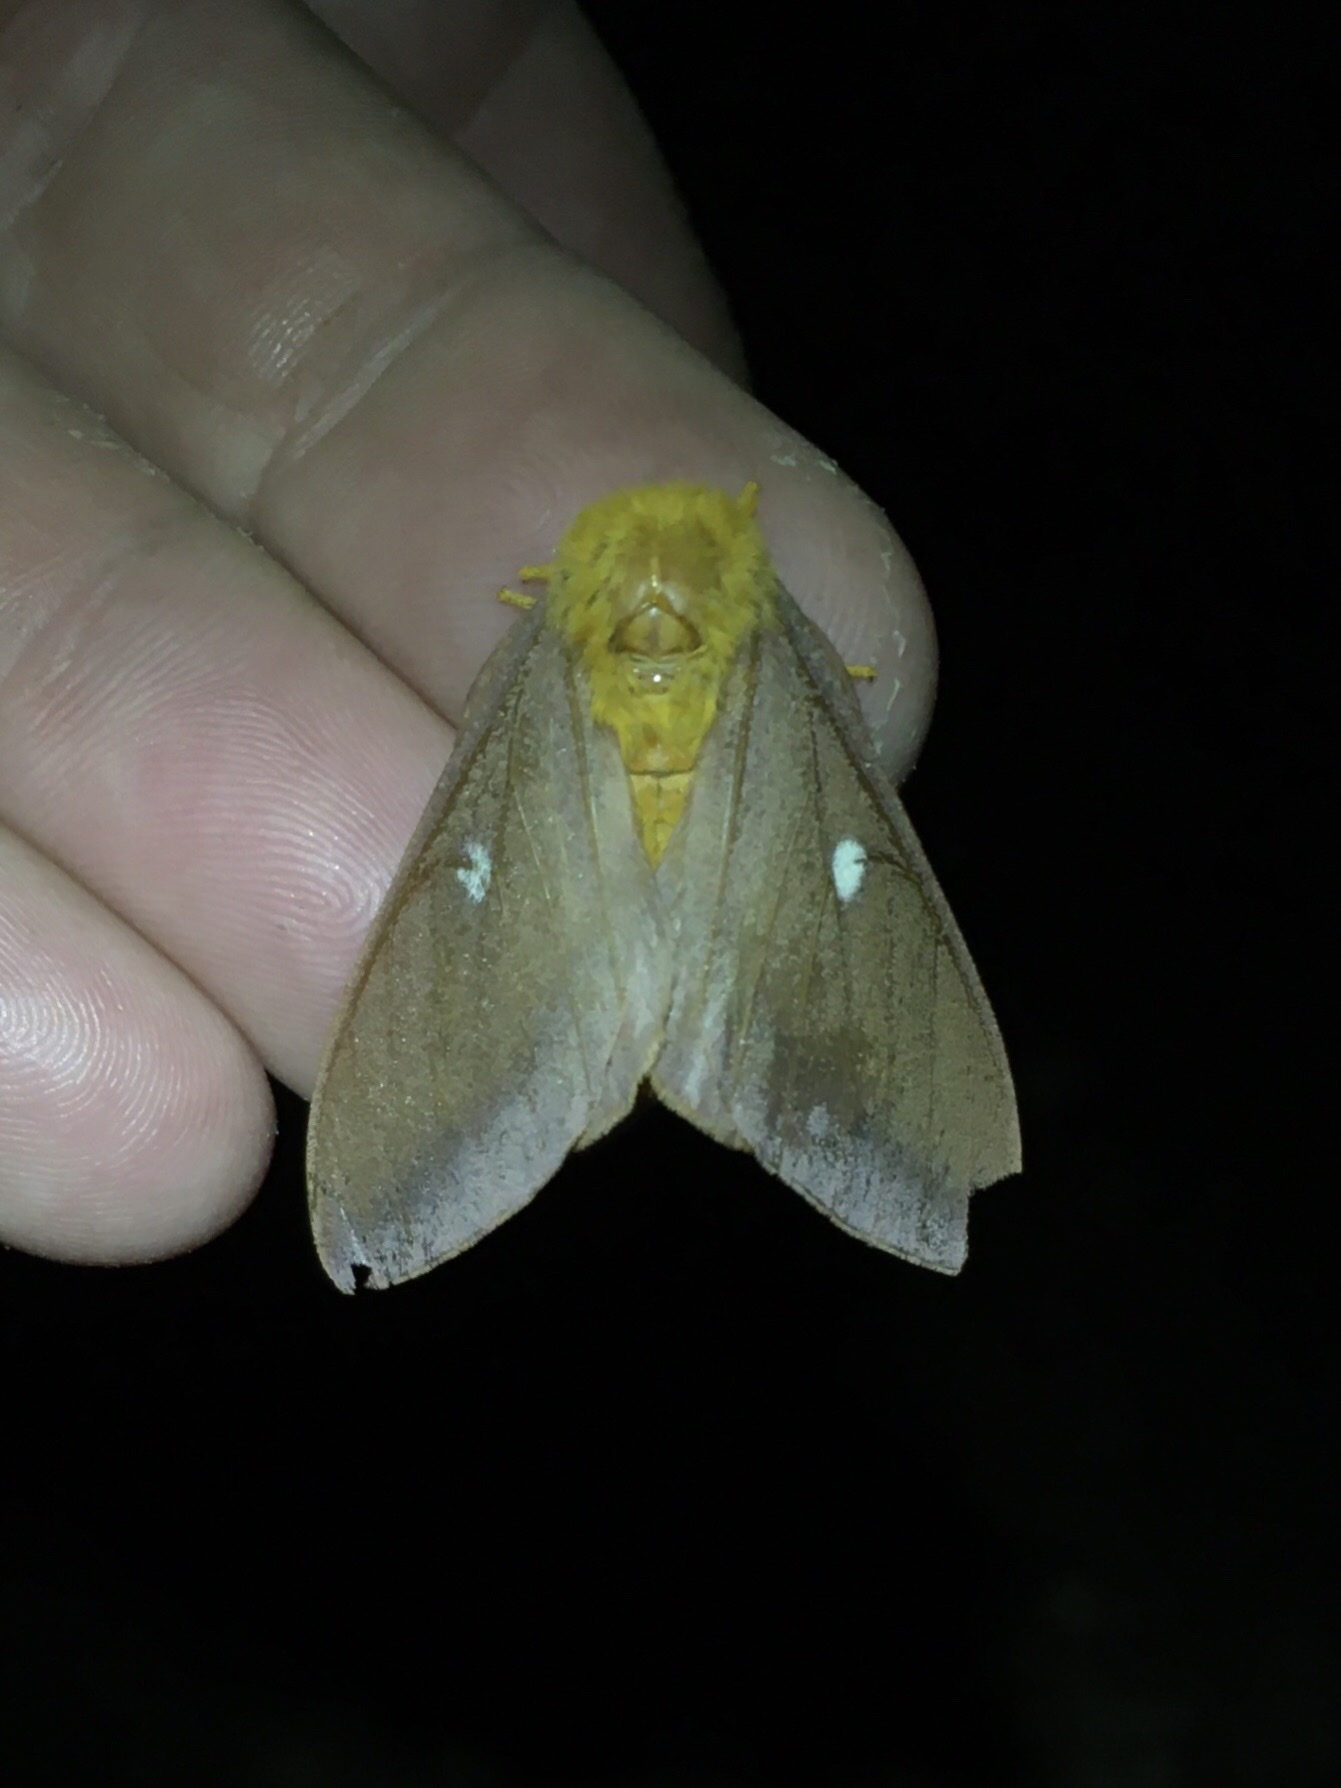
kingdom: Animalia
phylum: Arthropoda
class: Insecta
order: Lepidoptera
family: Saturniidae
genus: Anisota
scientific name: Anisota virginiensis
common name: Pink striped oakworm moth
